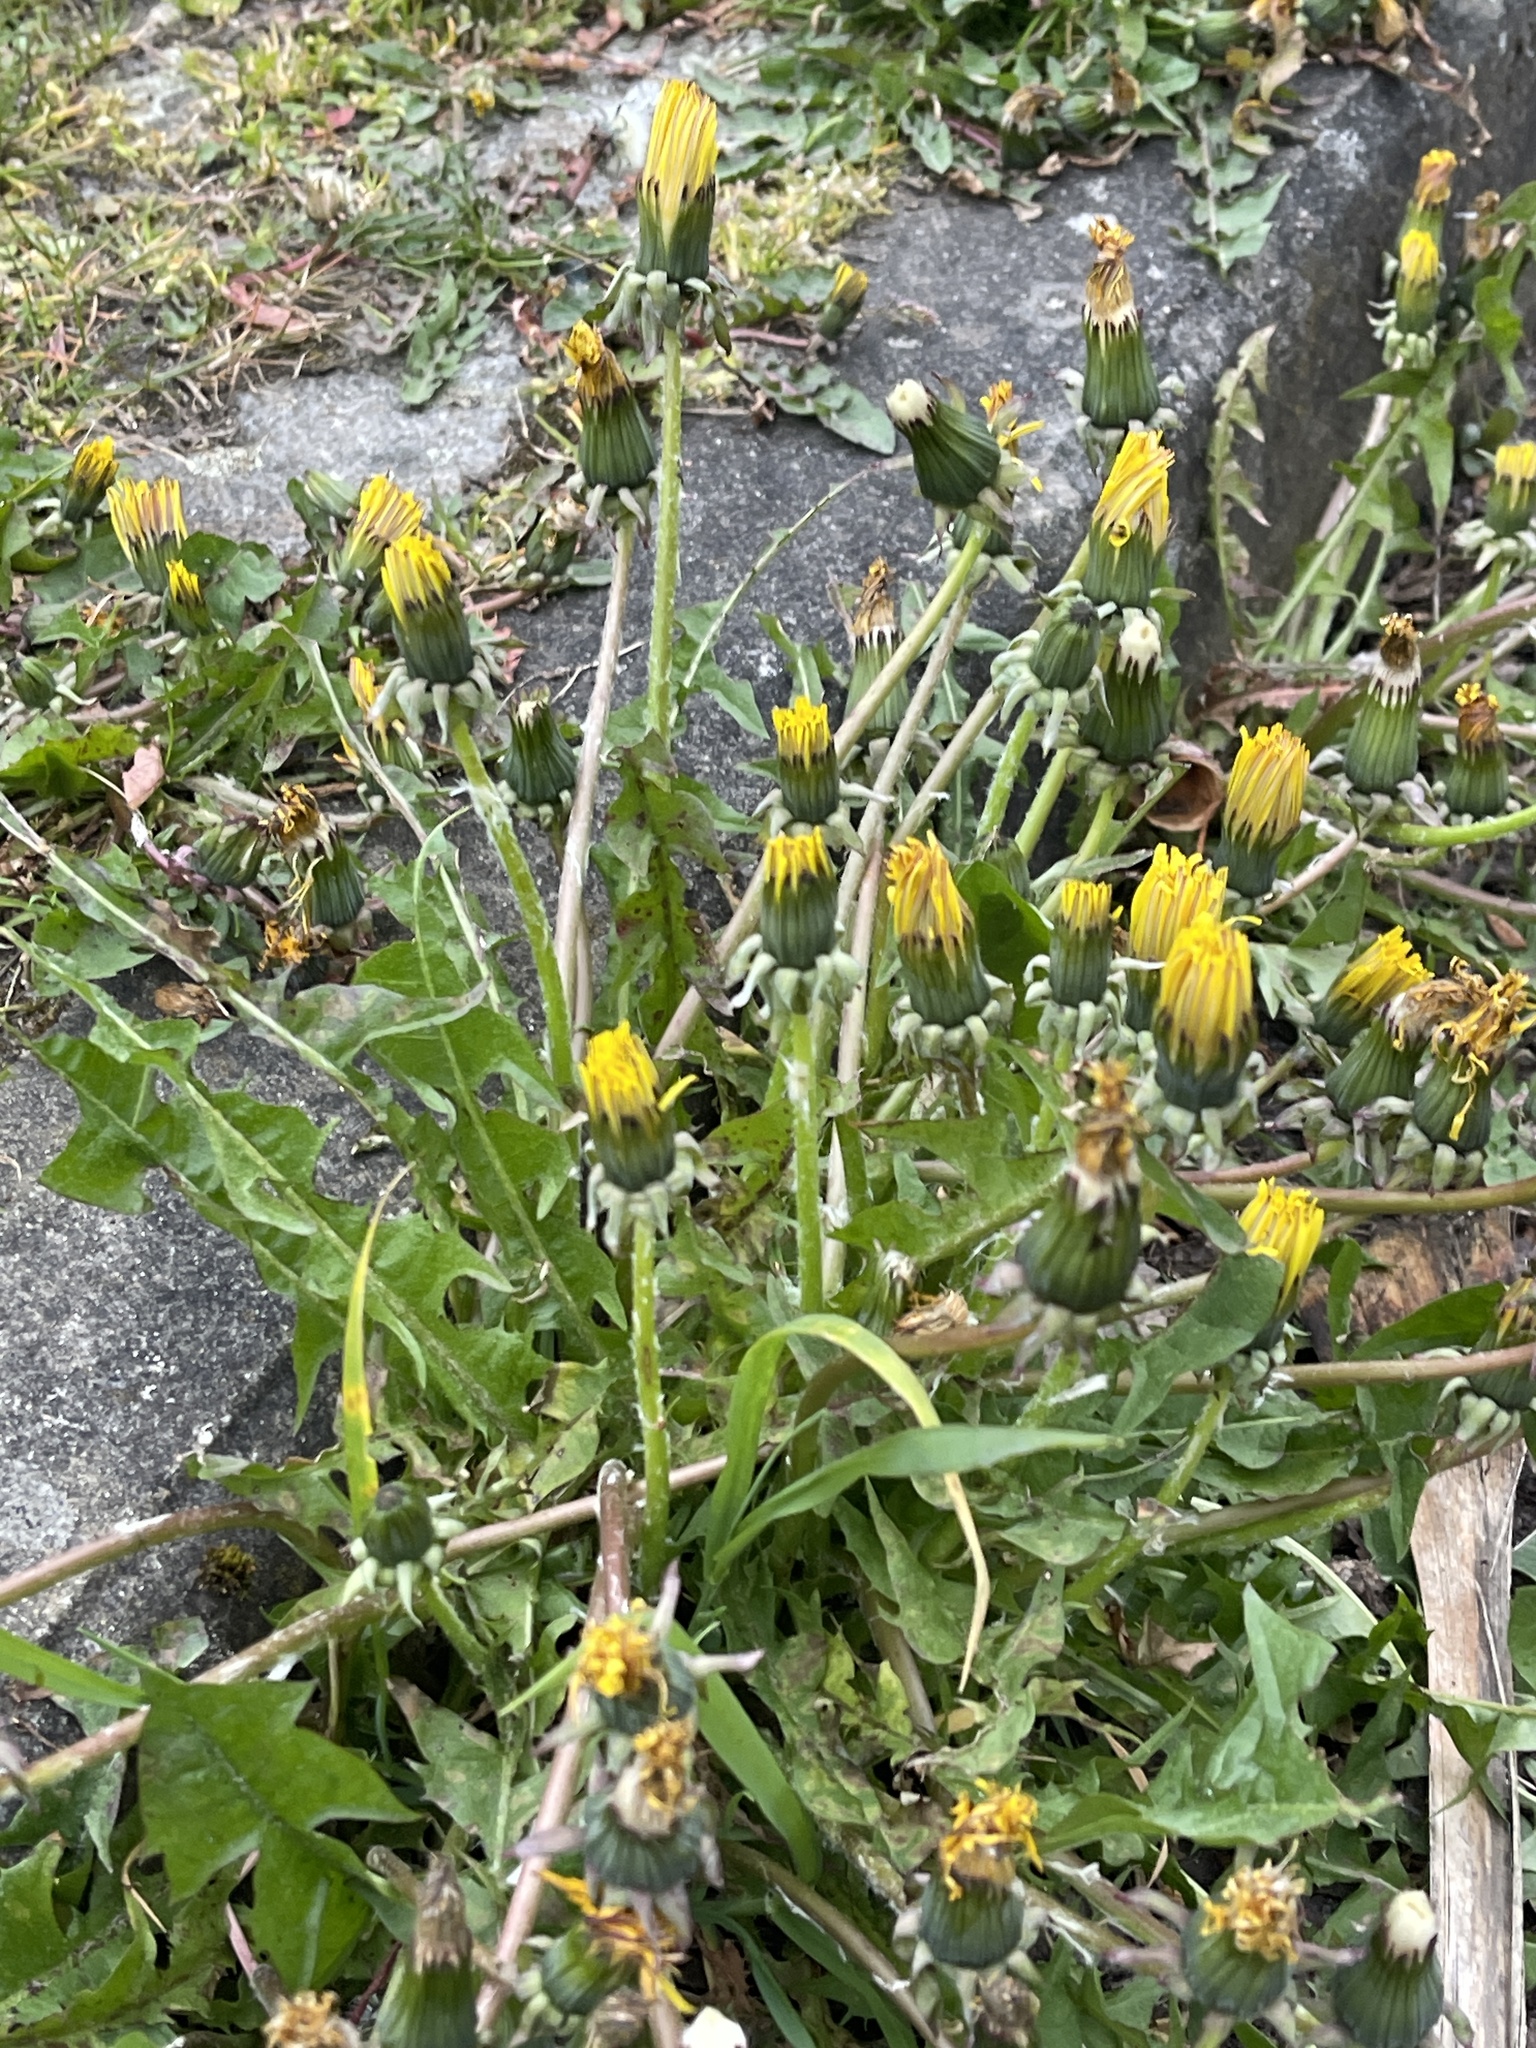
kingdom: Plantae
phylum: Tracheophyta
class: Magnoliopsida
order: Asterales
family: Asteraceae
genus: Taraxacum
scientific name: Taraxacum officinale
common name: Common dandelion
